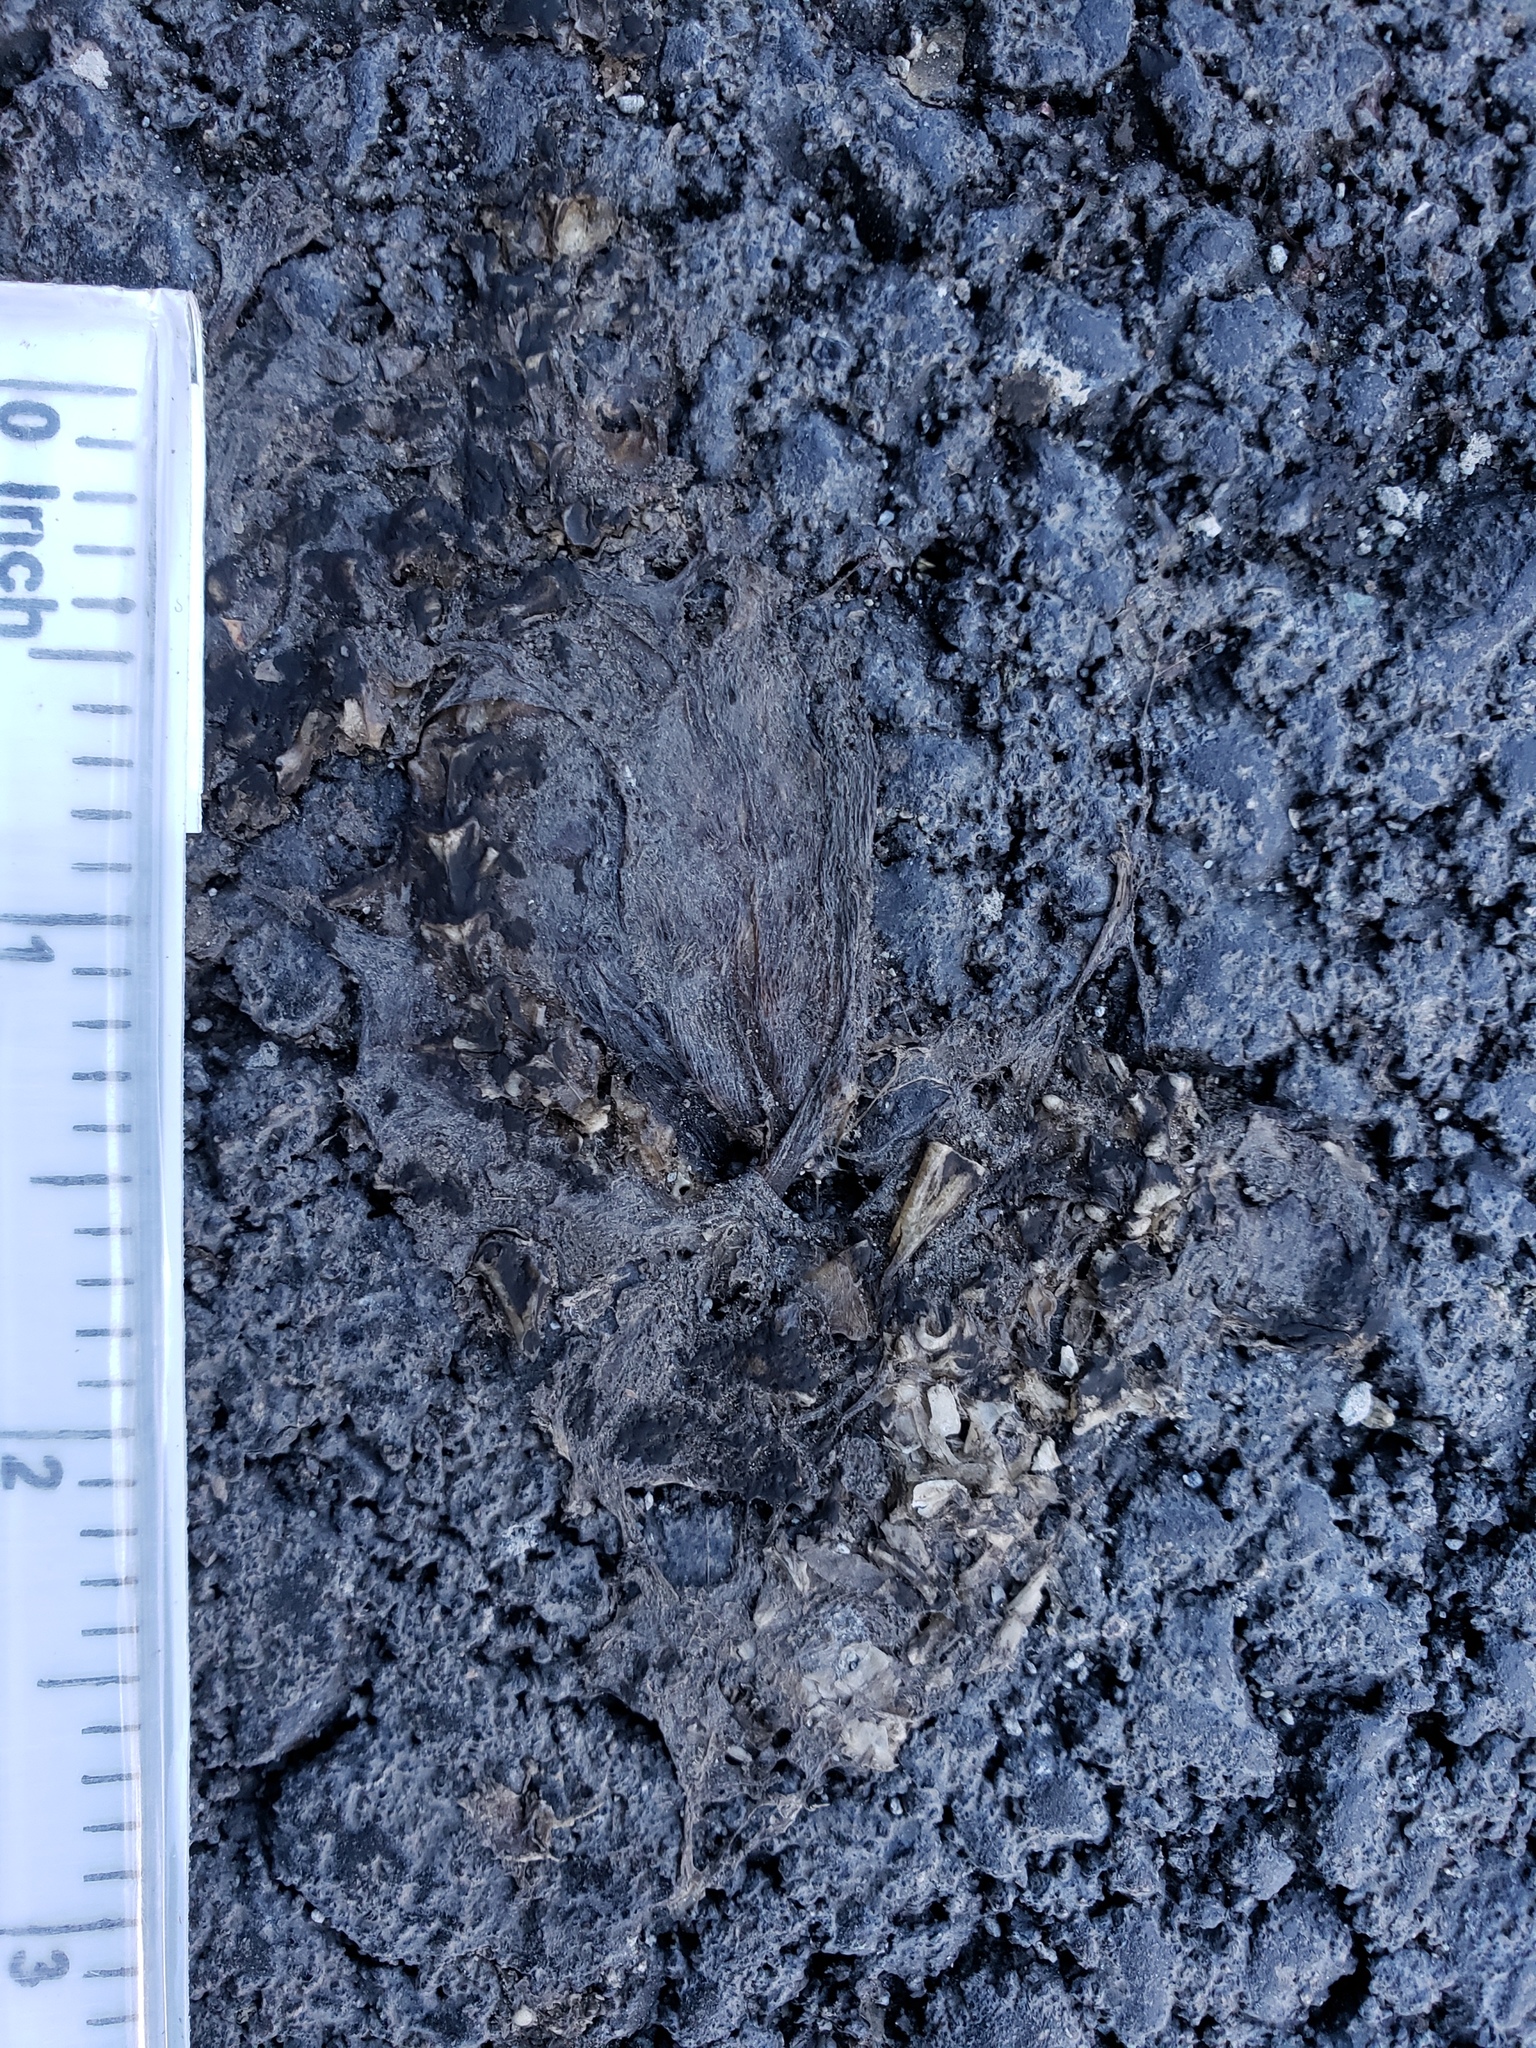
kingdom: Animalia
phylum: Chordata
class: Amphibia
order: Caudata
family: Salamandridae
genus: Taricha
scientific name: Taricha
